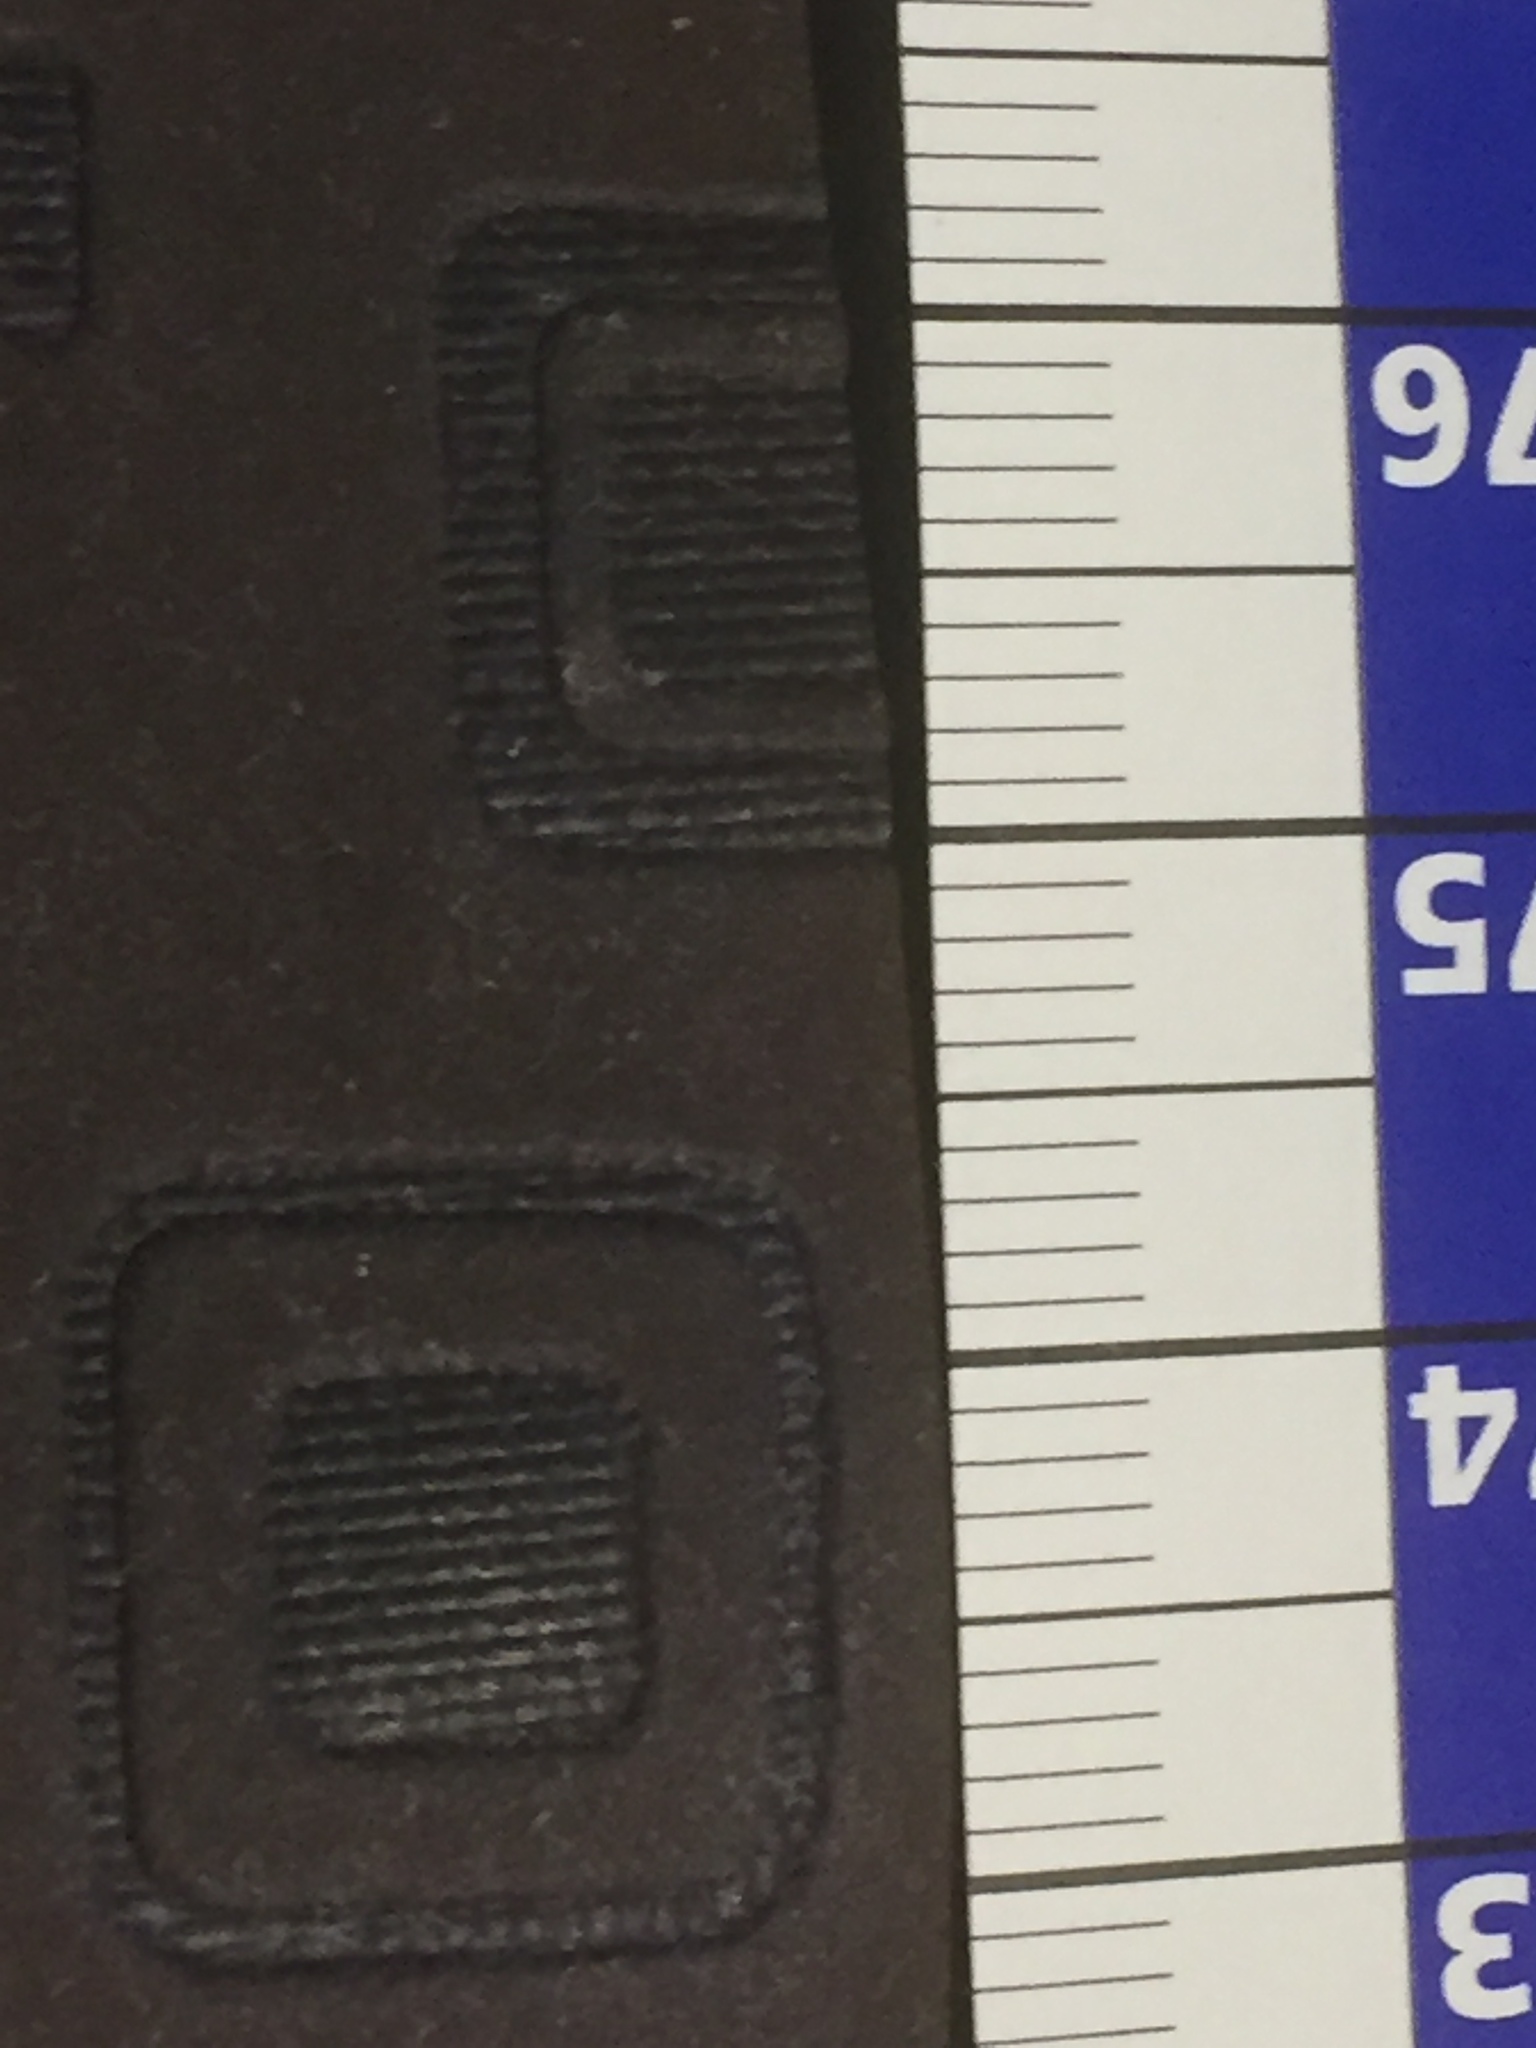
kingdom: Plantae
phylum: Charophyta
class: Charophyceae
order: Charales
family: Characeae
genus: Chara
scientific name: Chara hispida
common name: Bristly stonewort
